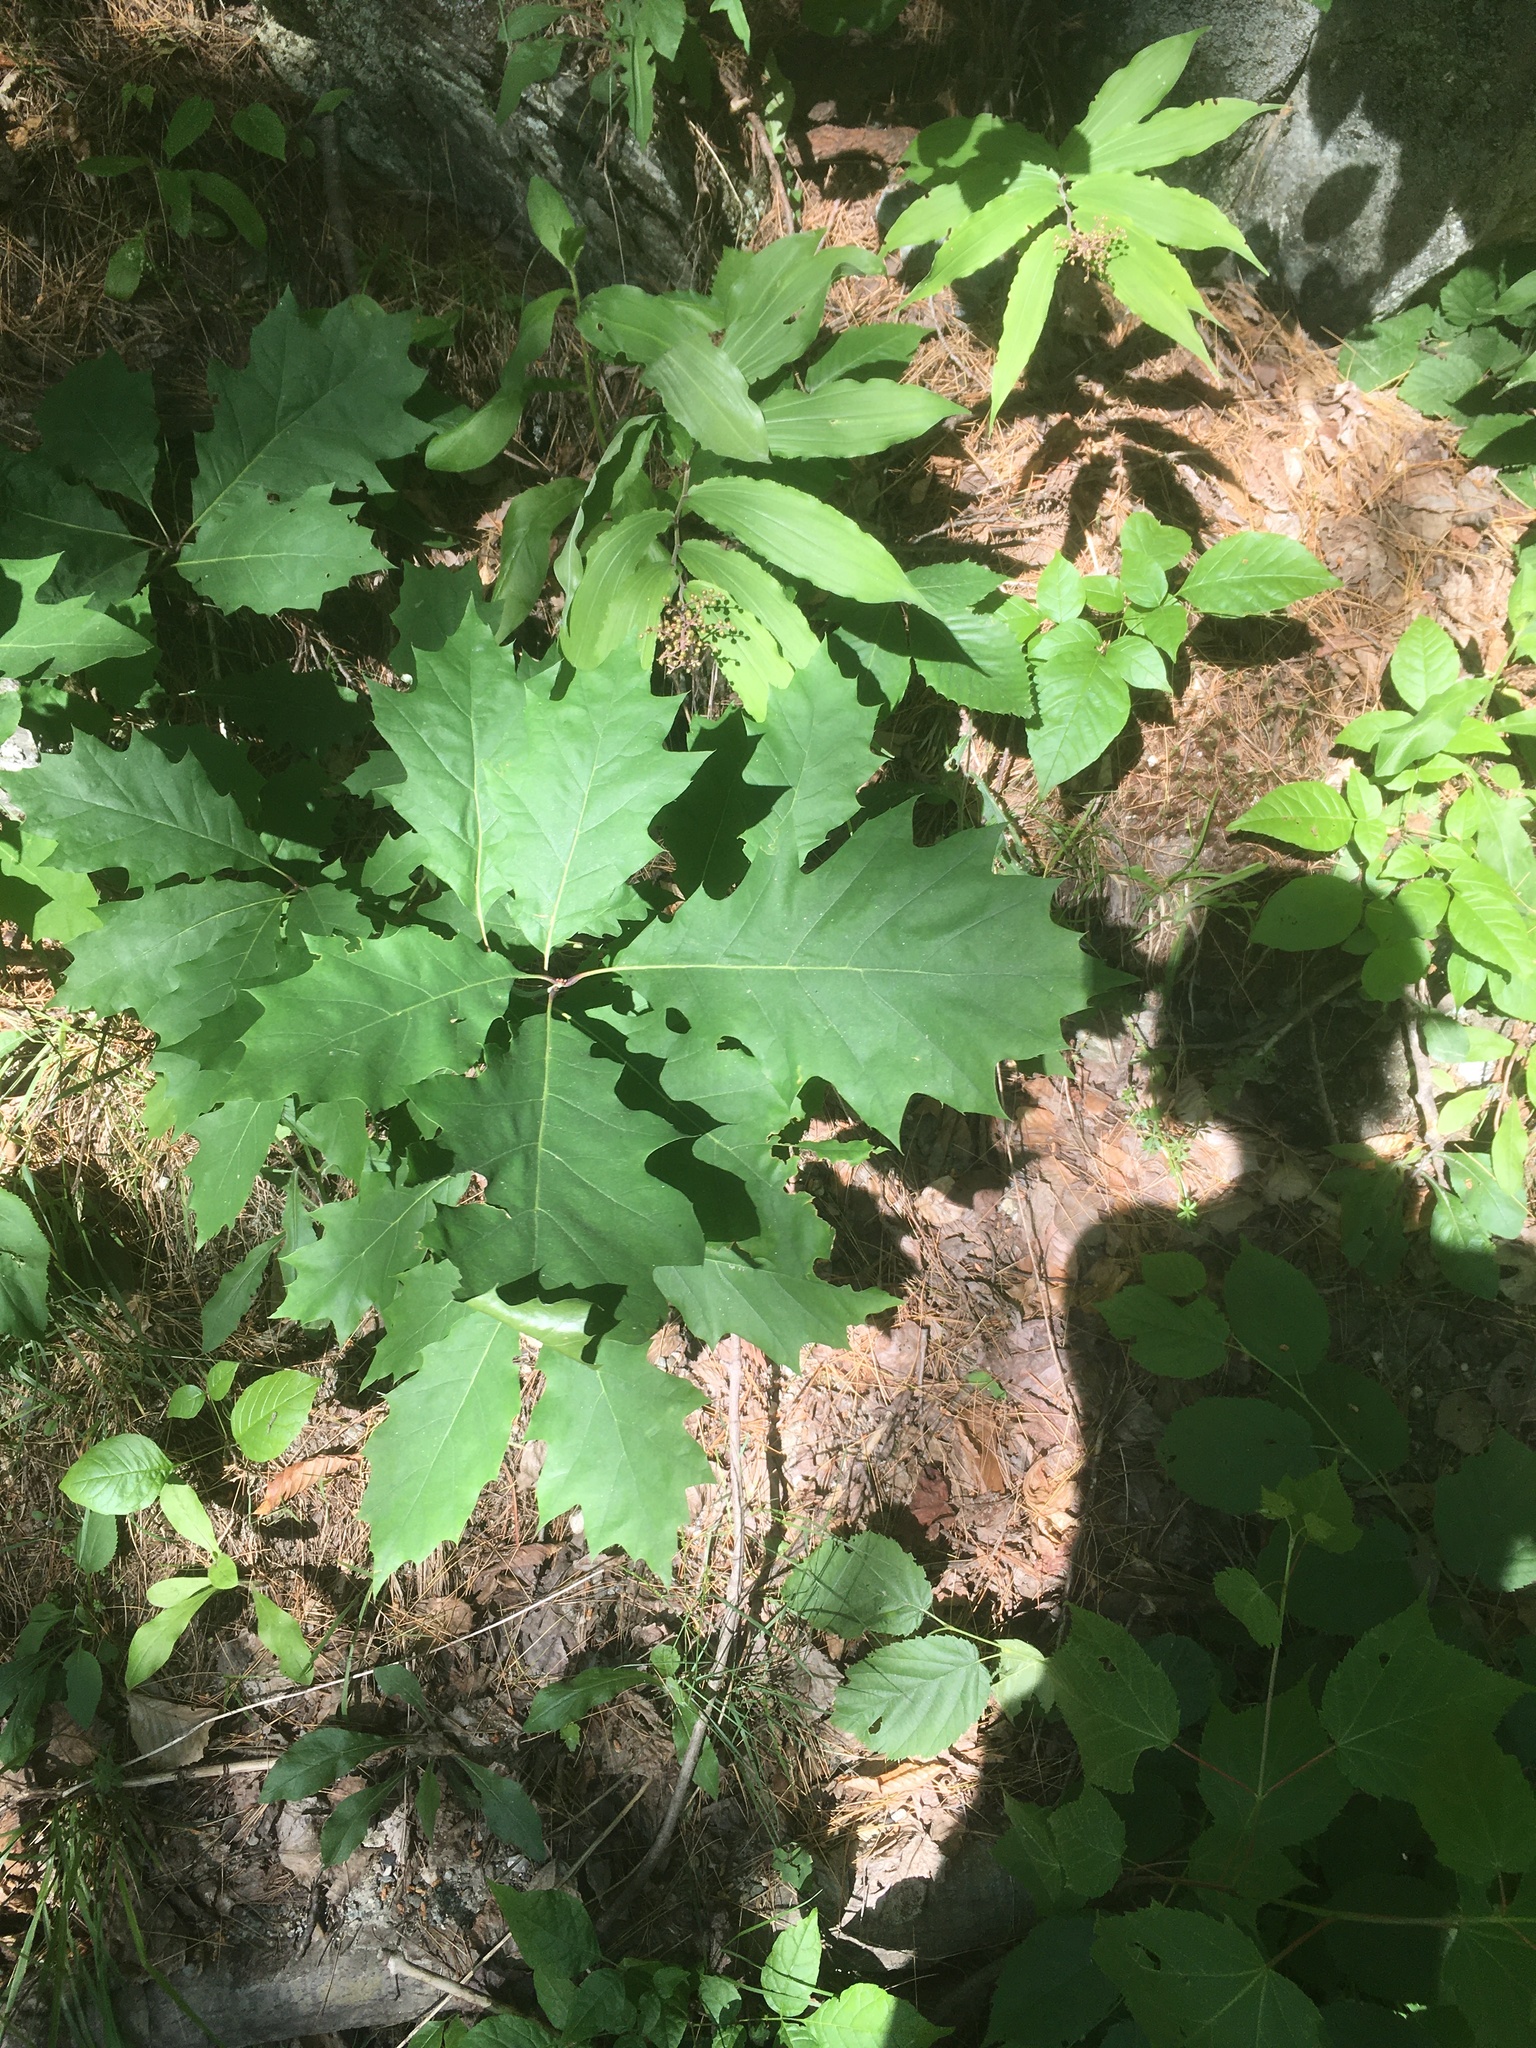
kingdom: Plantae
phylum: Tracheophyta
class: Magnoliopsida
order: Fagales
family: Fagaceae
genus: Quercus
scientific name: Quercus rubra
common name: Red oak
